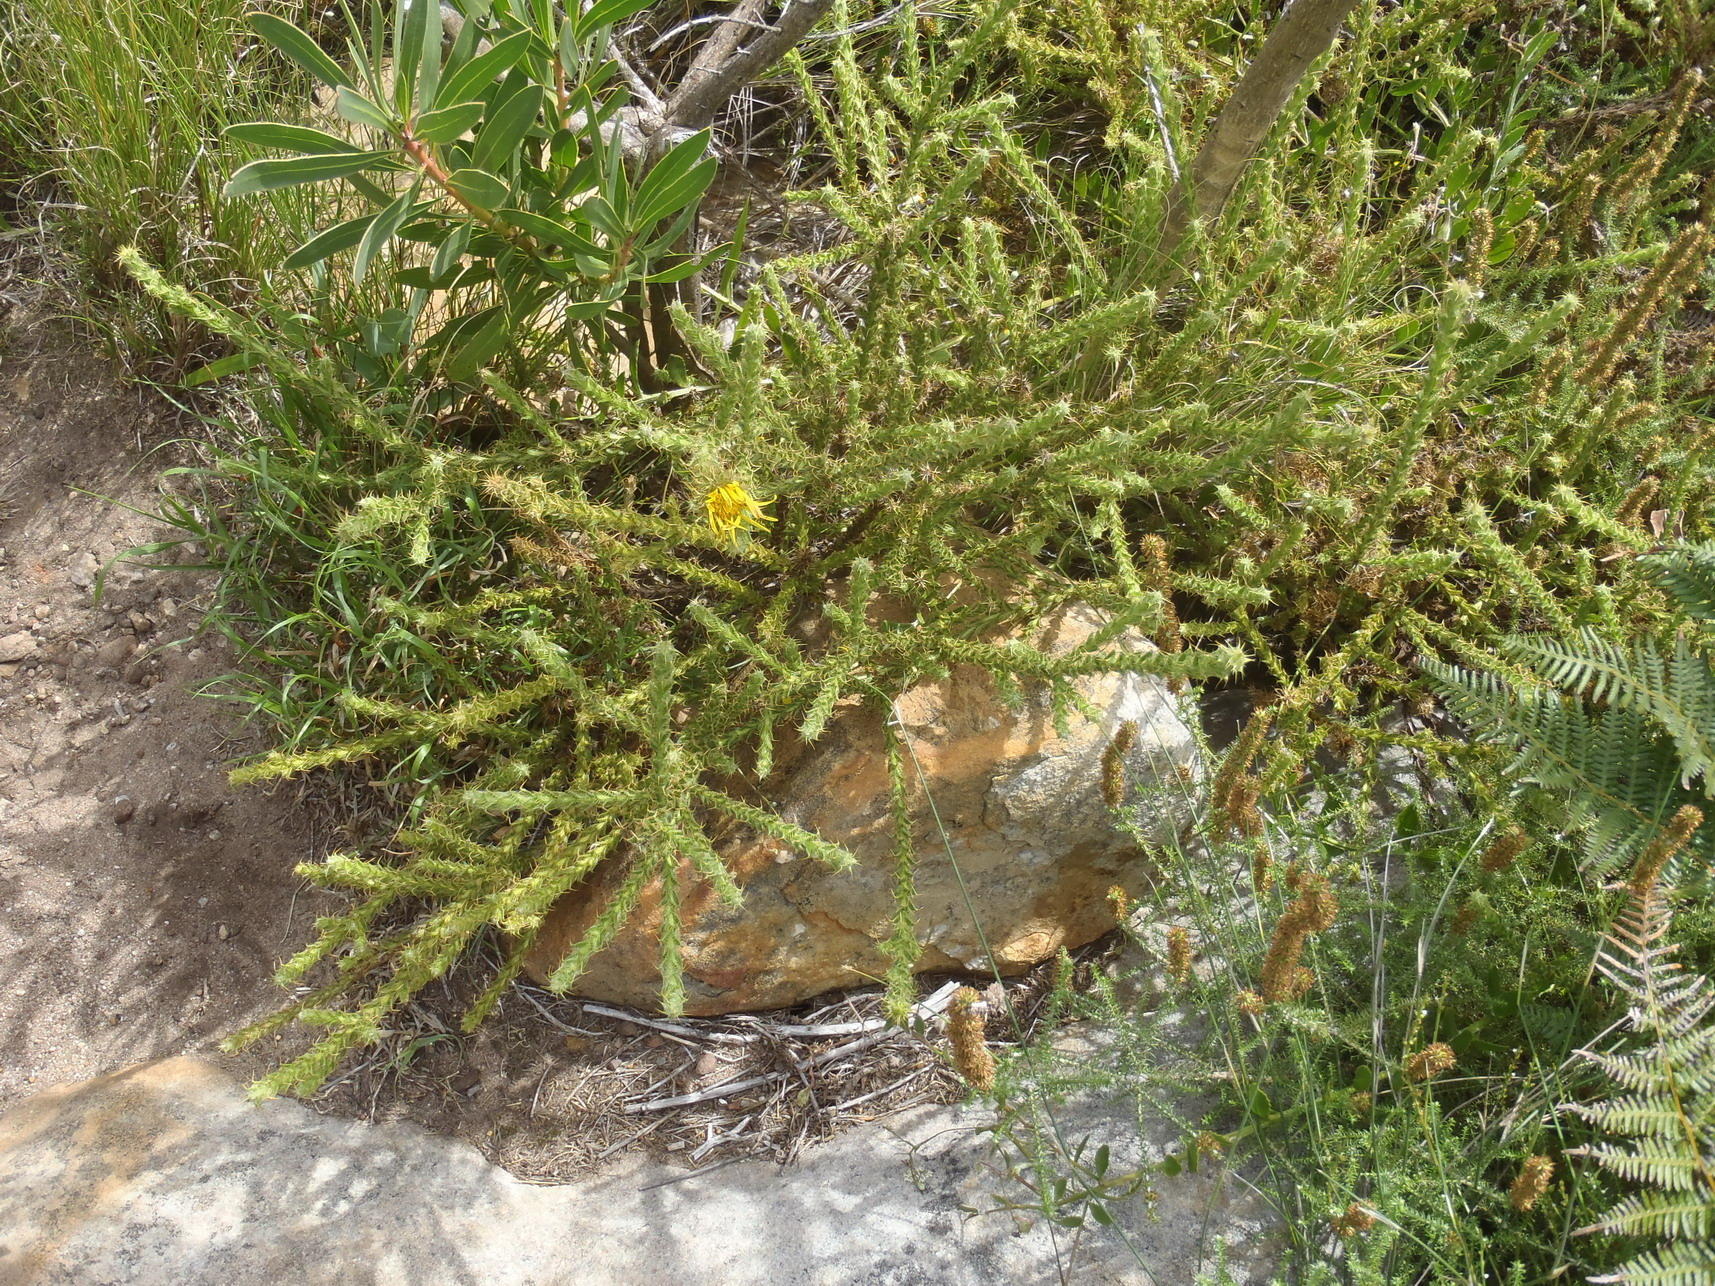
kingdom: Plantae
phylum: Tracheophyta
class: Magnoliopsida
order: Asterales
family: Asteraceae
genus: Cullumia
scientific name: Cullumia reticulata
